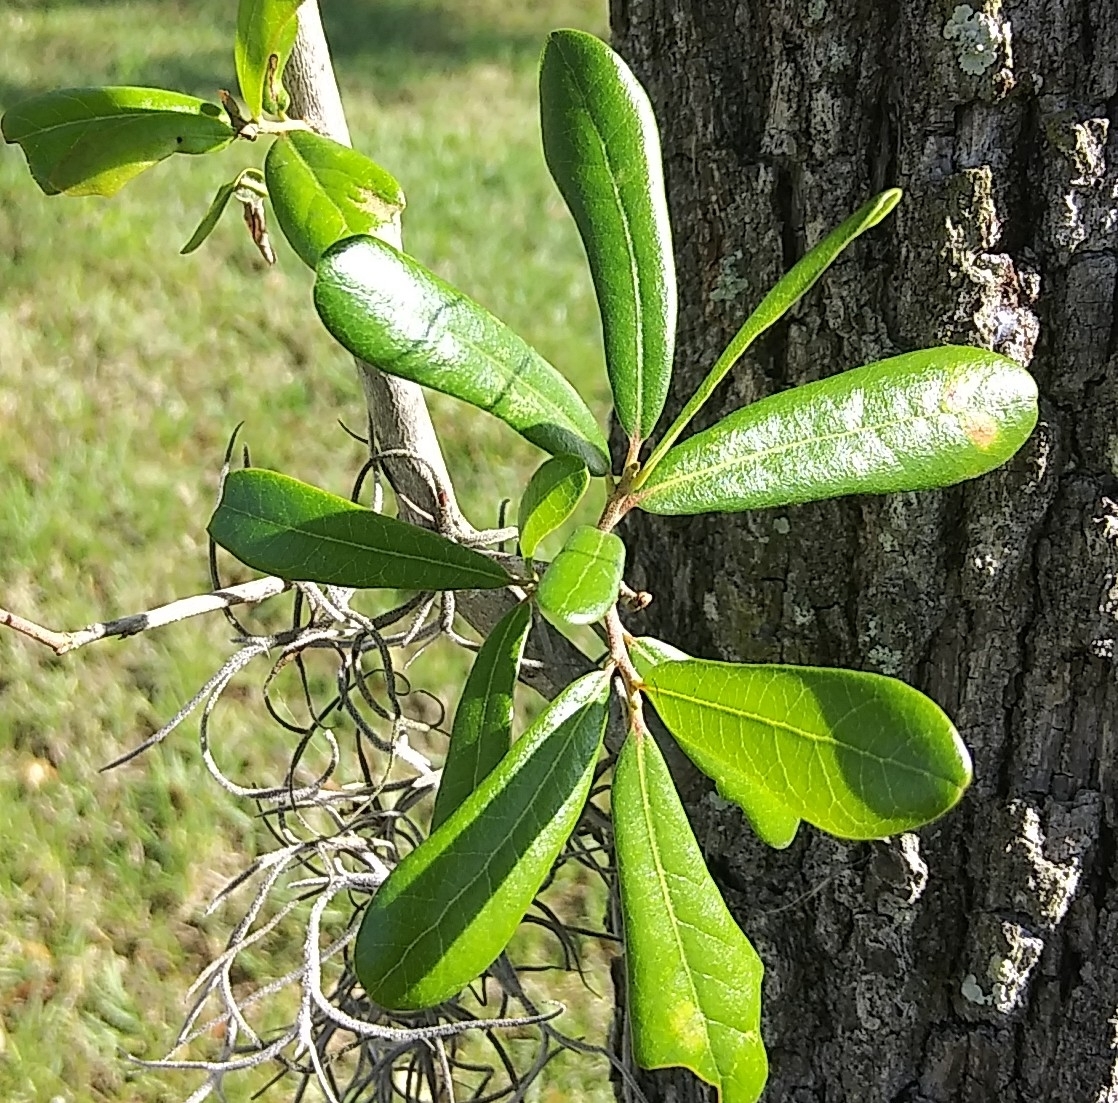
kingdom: Plantae
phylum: Tracheophyta
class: Magnoliopsida
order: Fagales
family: Fagaceae
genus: Quercus
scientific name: Quercus virginiana
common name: Southern live oak
